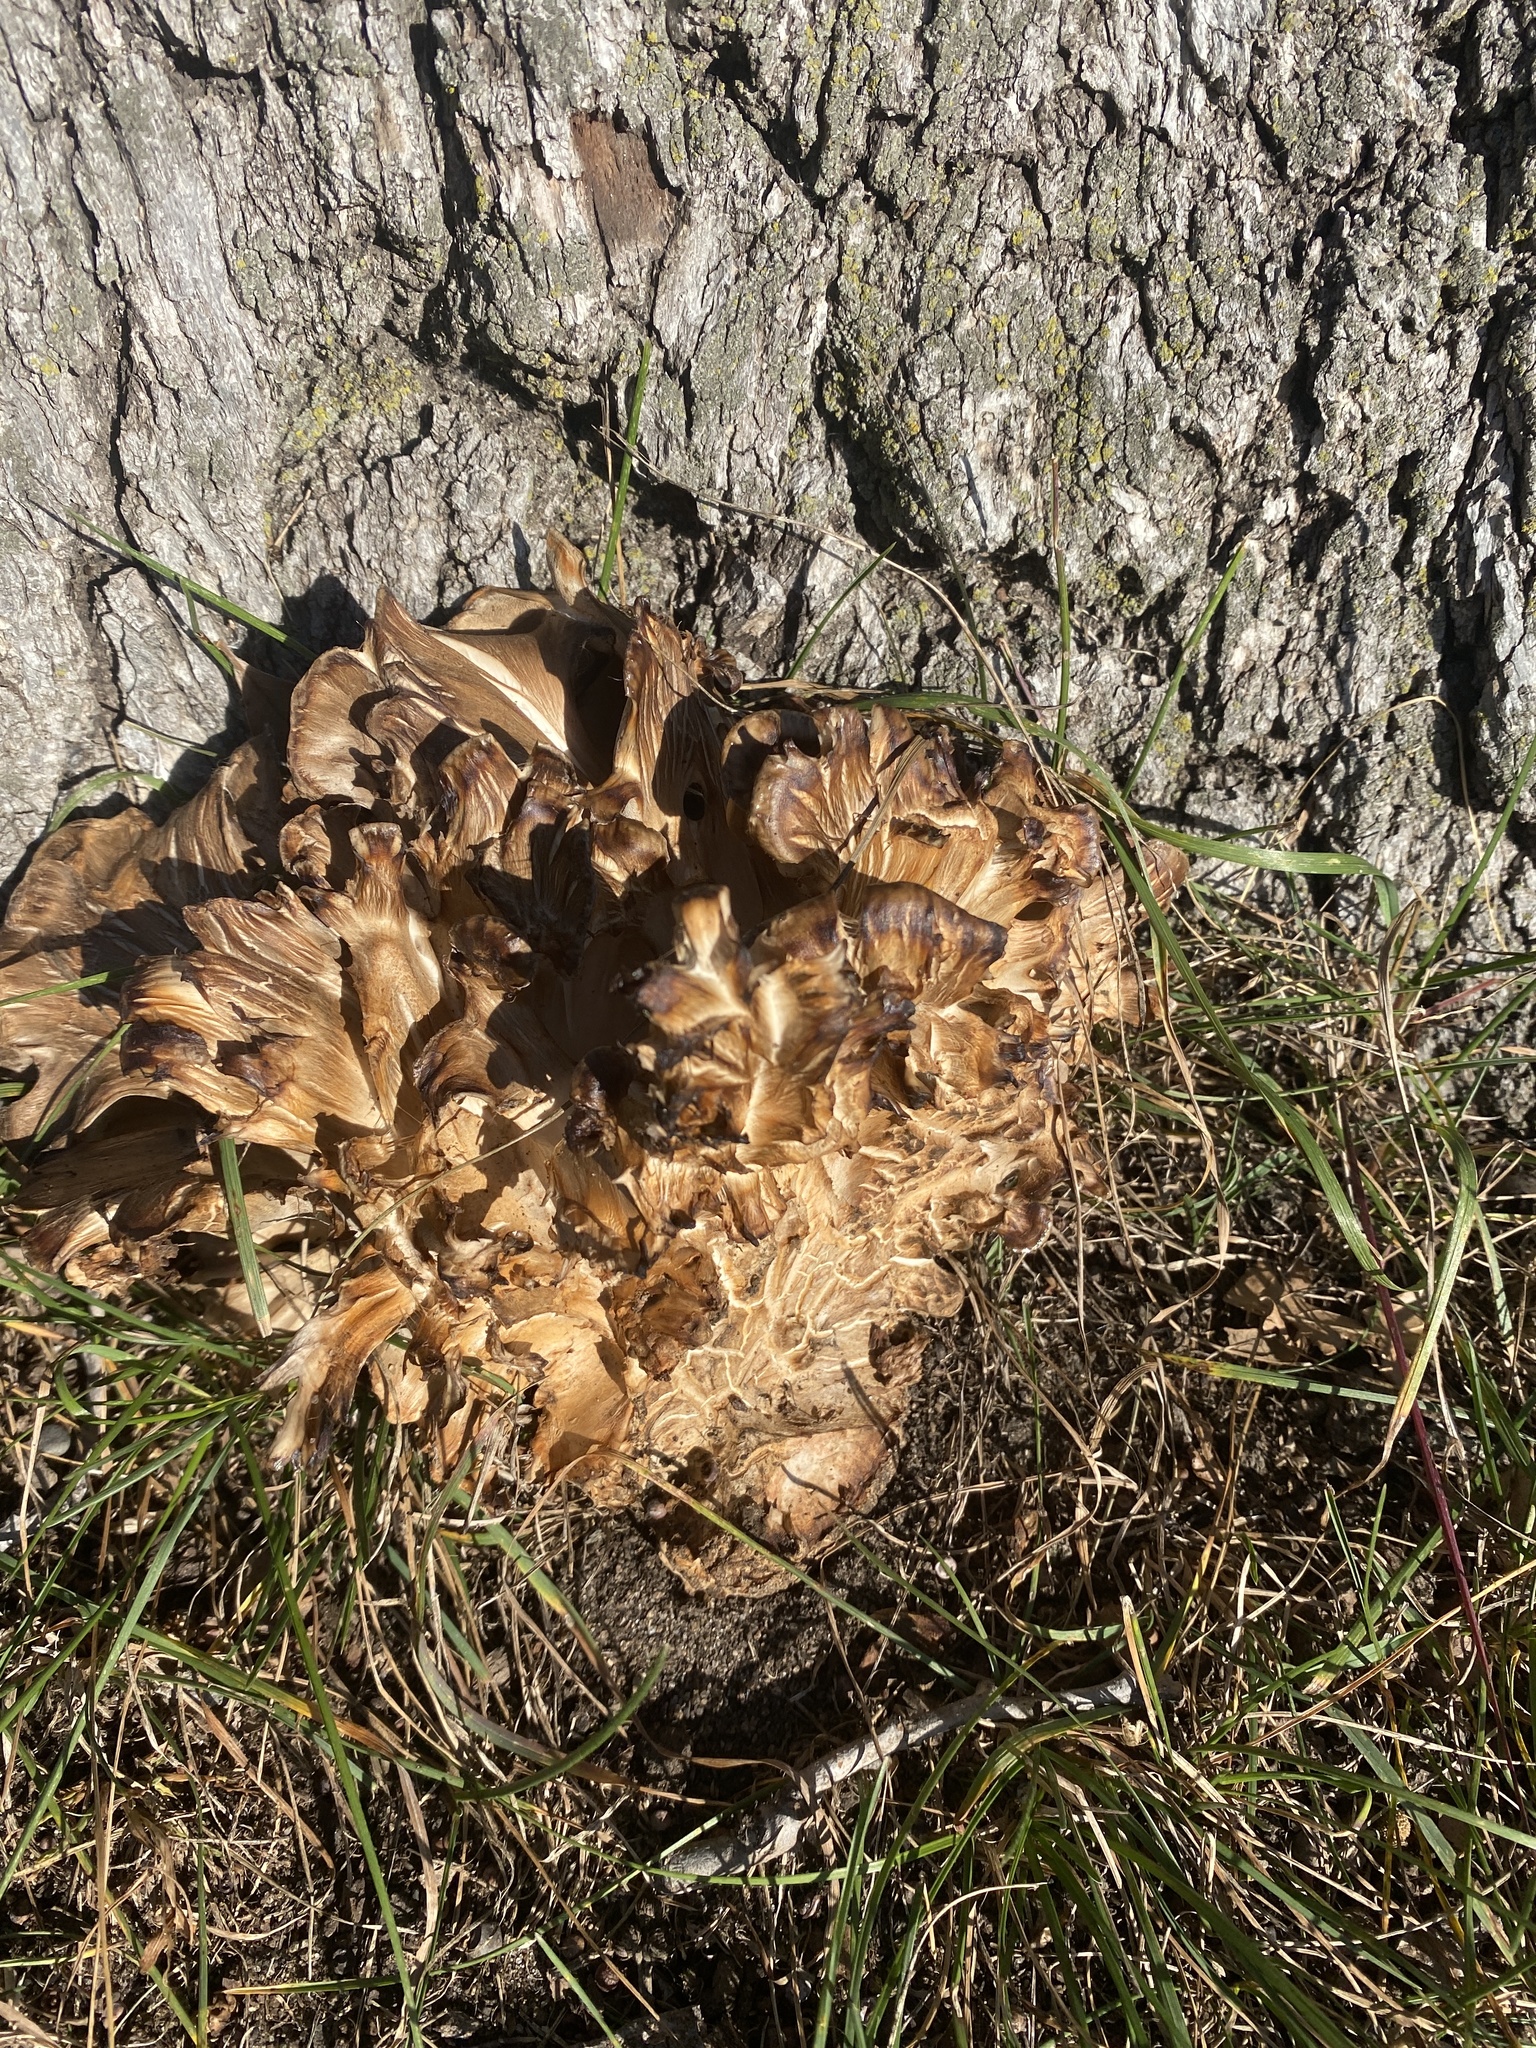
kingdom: Fungi
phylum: Basidiomycota
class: Agaricomycetes
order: Polyporales
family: Grifolaceae
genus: Grifola
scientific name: Grifola frondosa
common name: Hen of the woods
